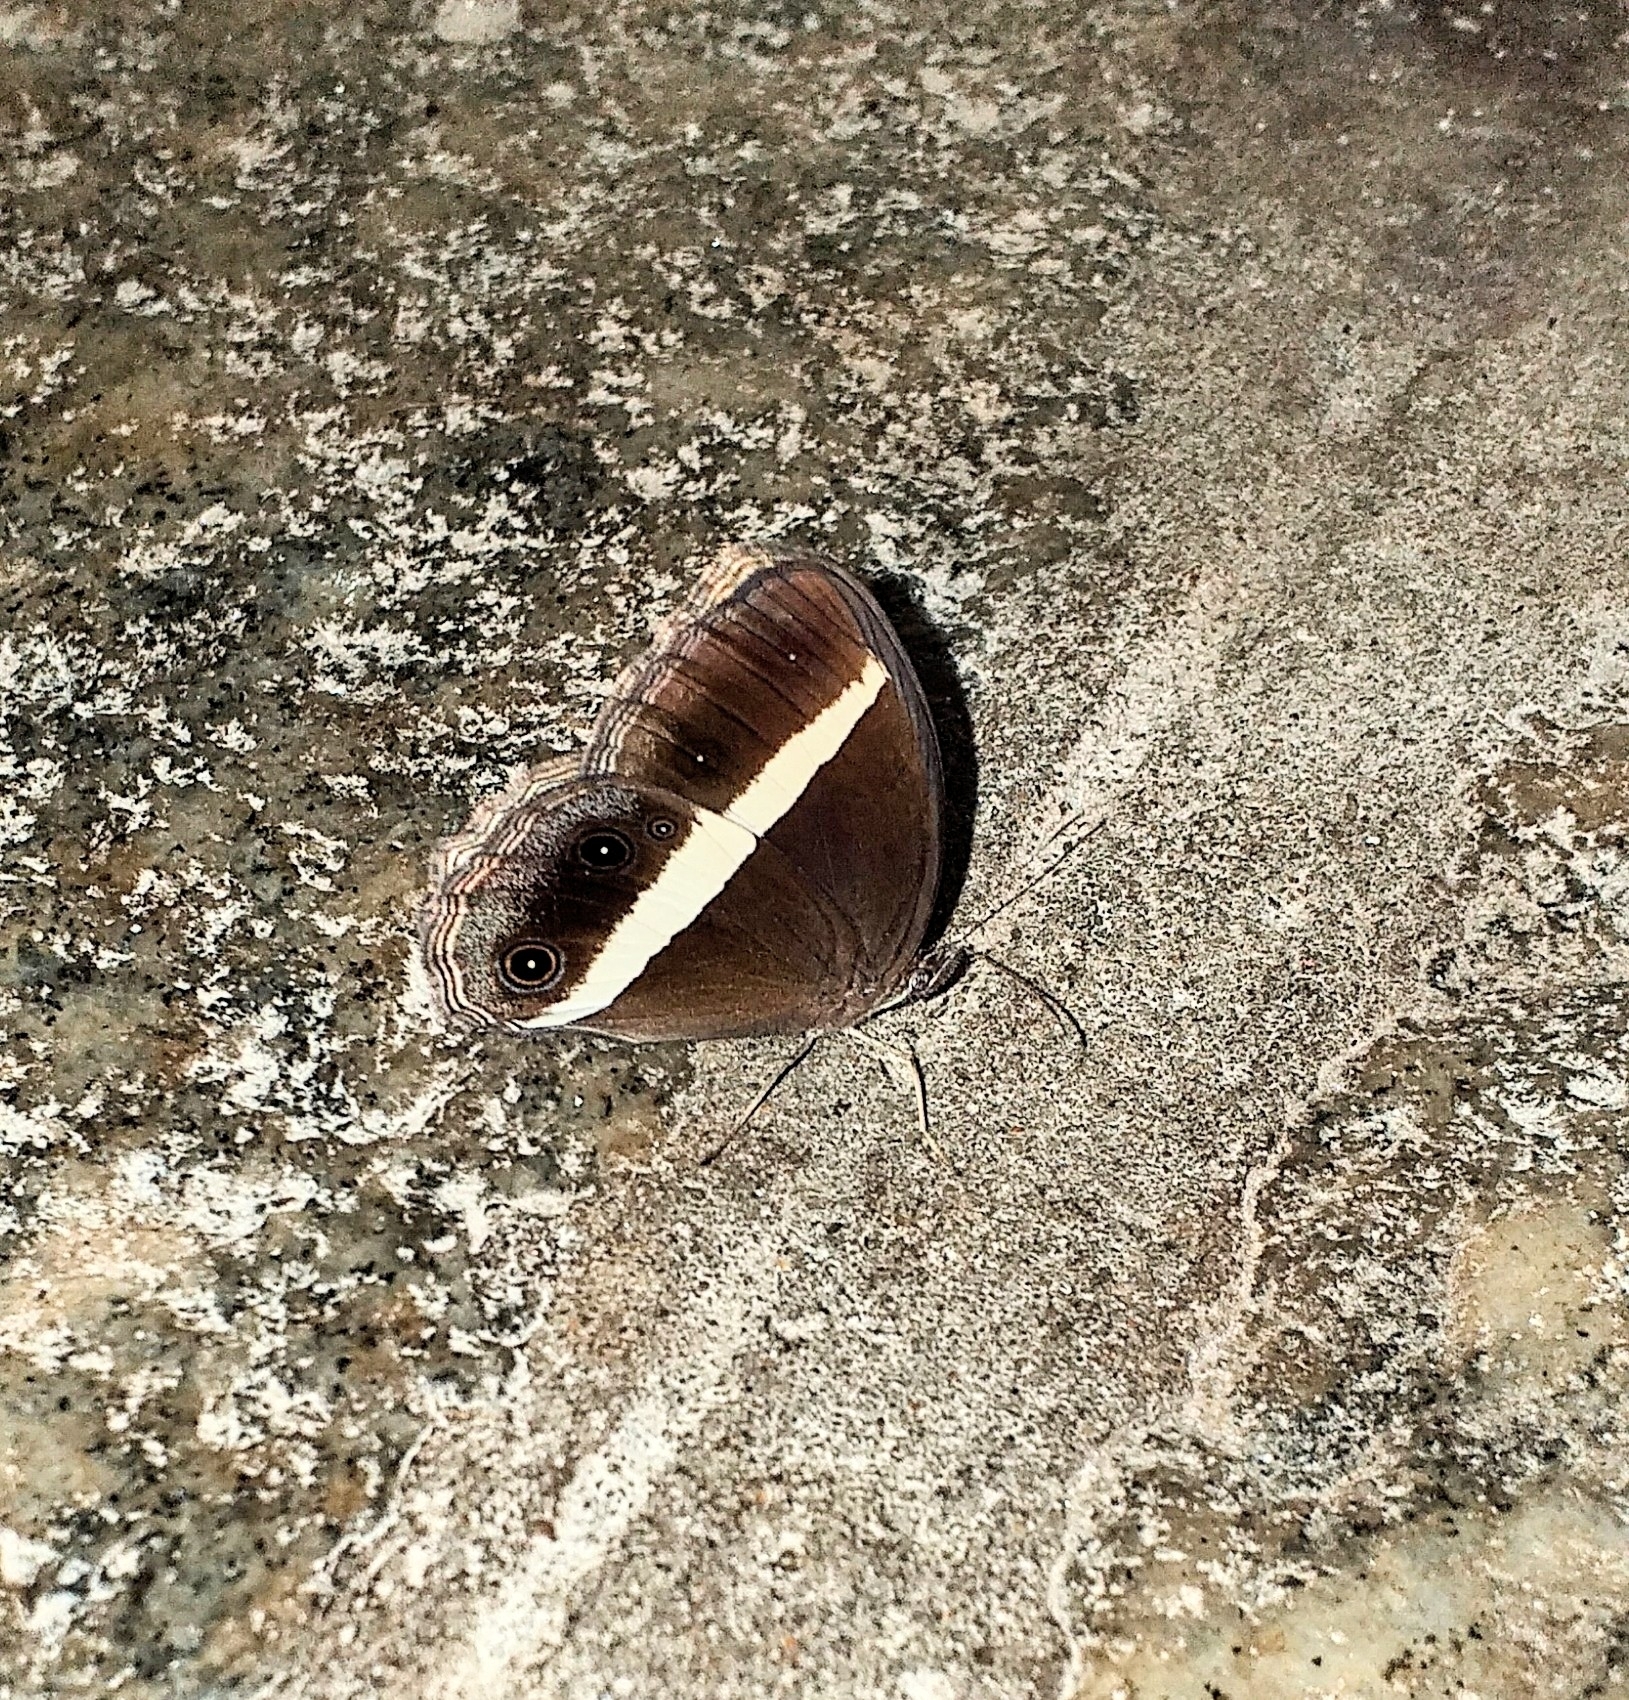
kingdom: Animalia
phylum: Arthropoda
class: Insecta
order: Lepidoptera
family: Nymphalidae
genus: Orsotriaena
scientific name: Orsotriaena medus
